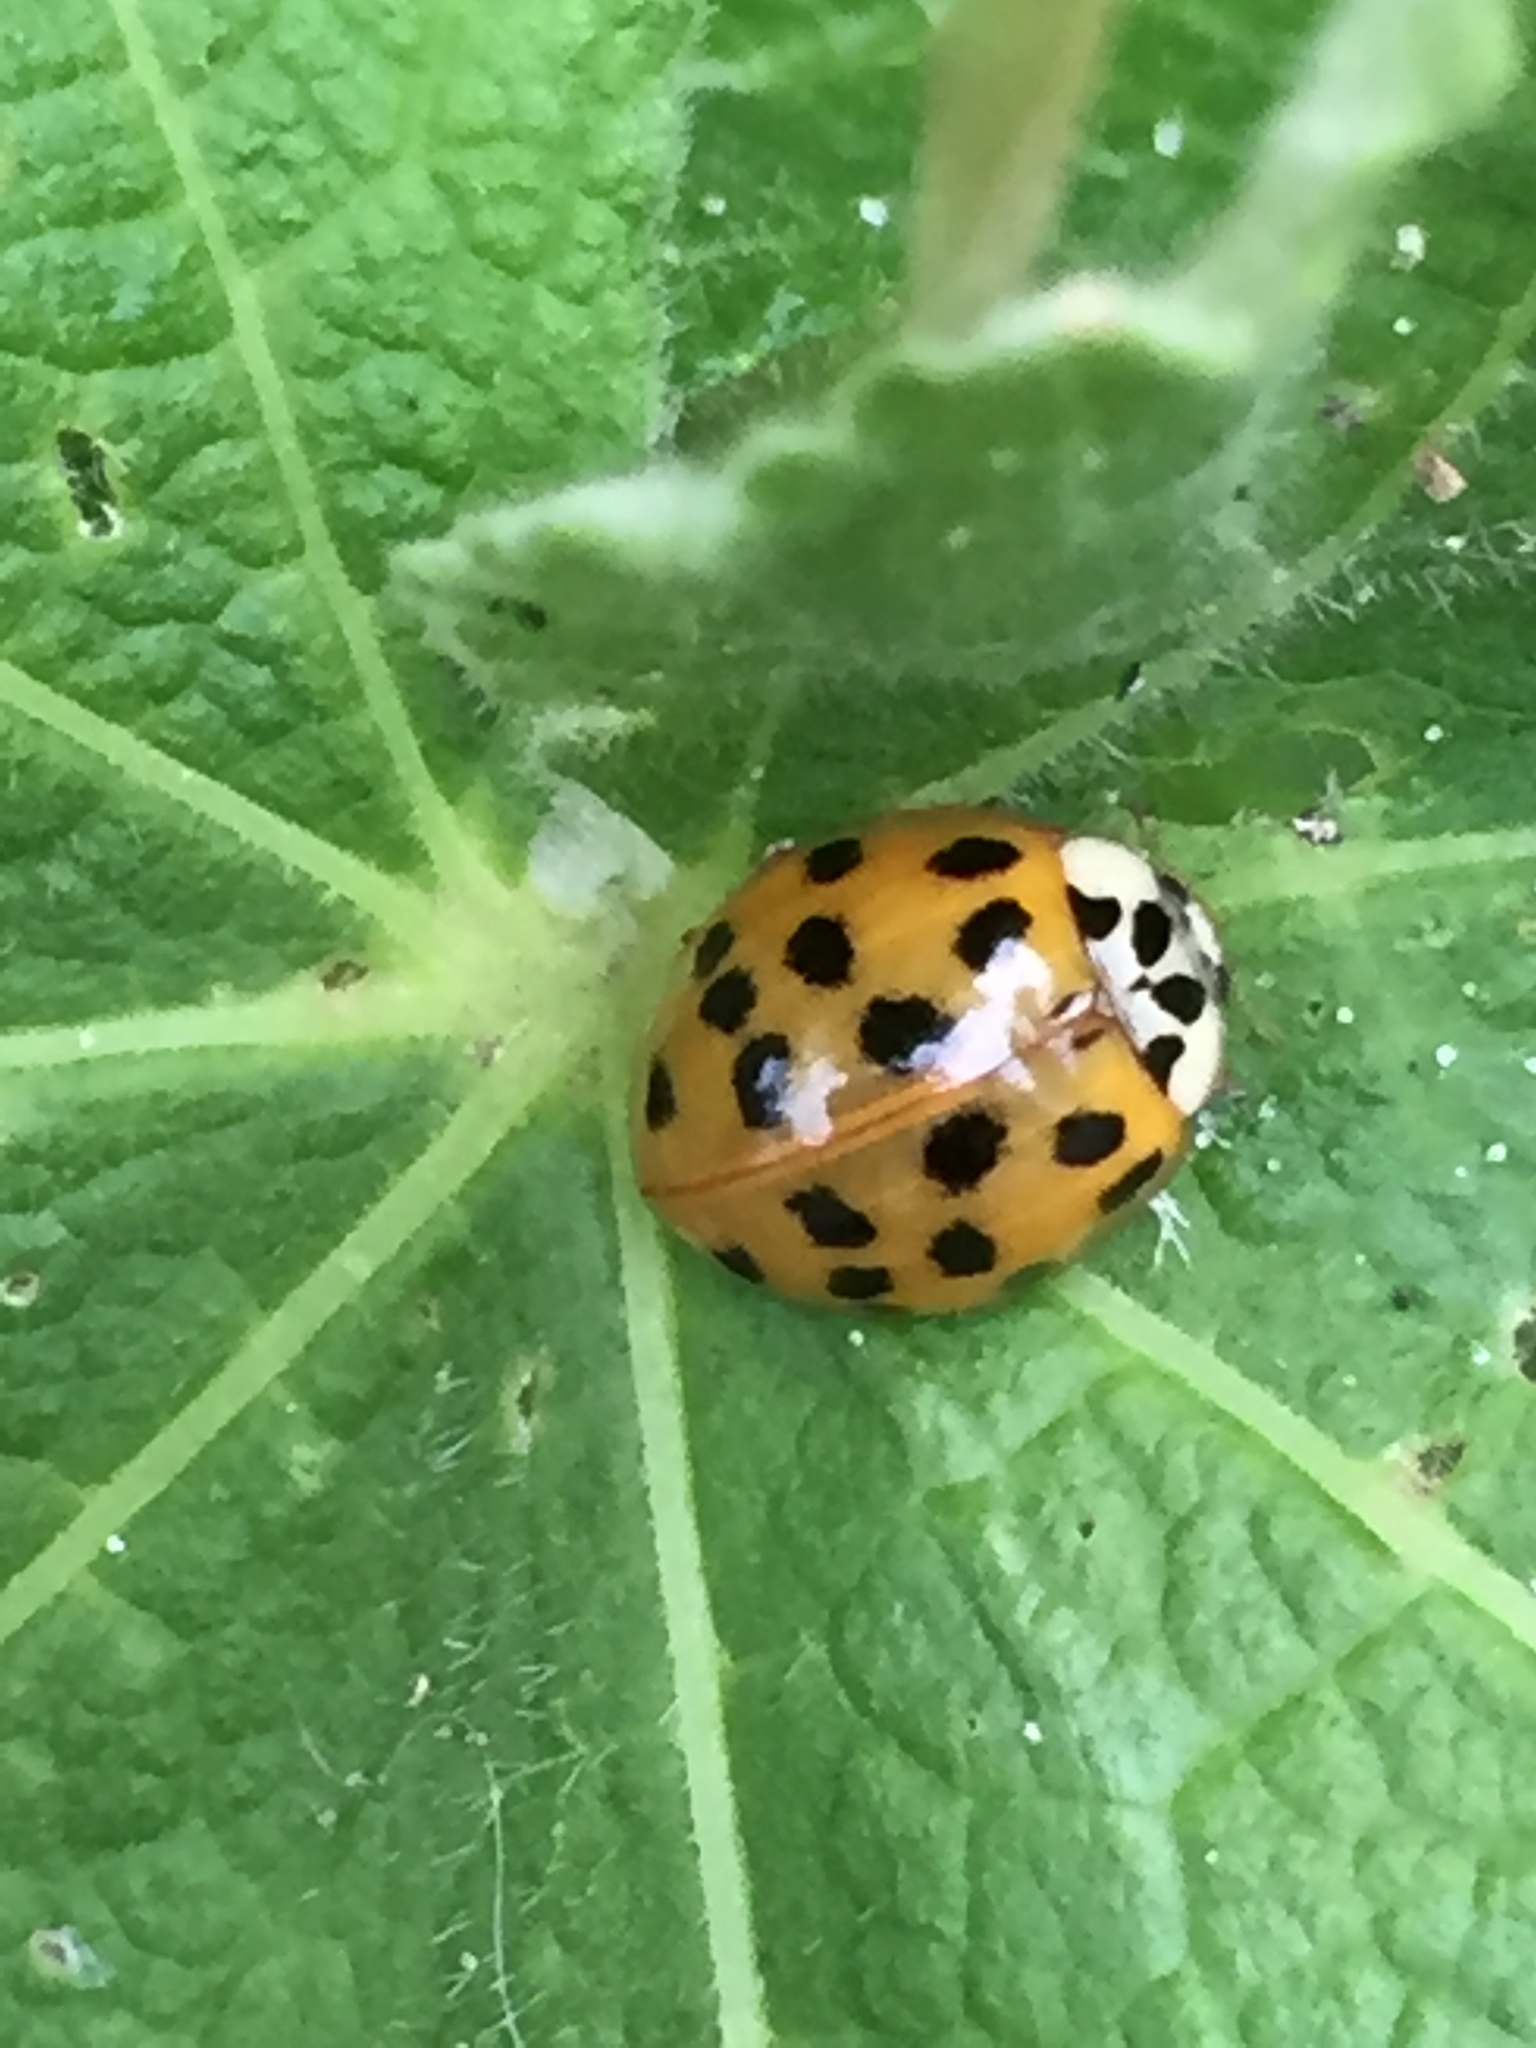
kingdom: Animalia
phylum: Arthropoda
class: Insecta
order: Coleoptera
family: Coccinellidae
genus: Harmonia
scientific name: Harmonia axyridis
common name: Harlequin ladybird
